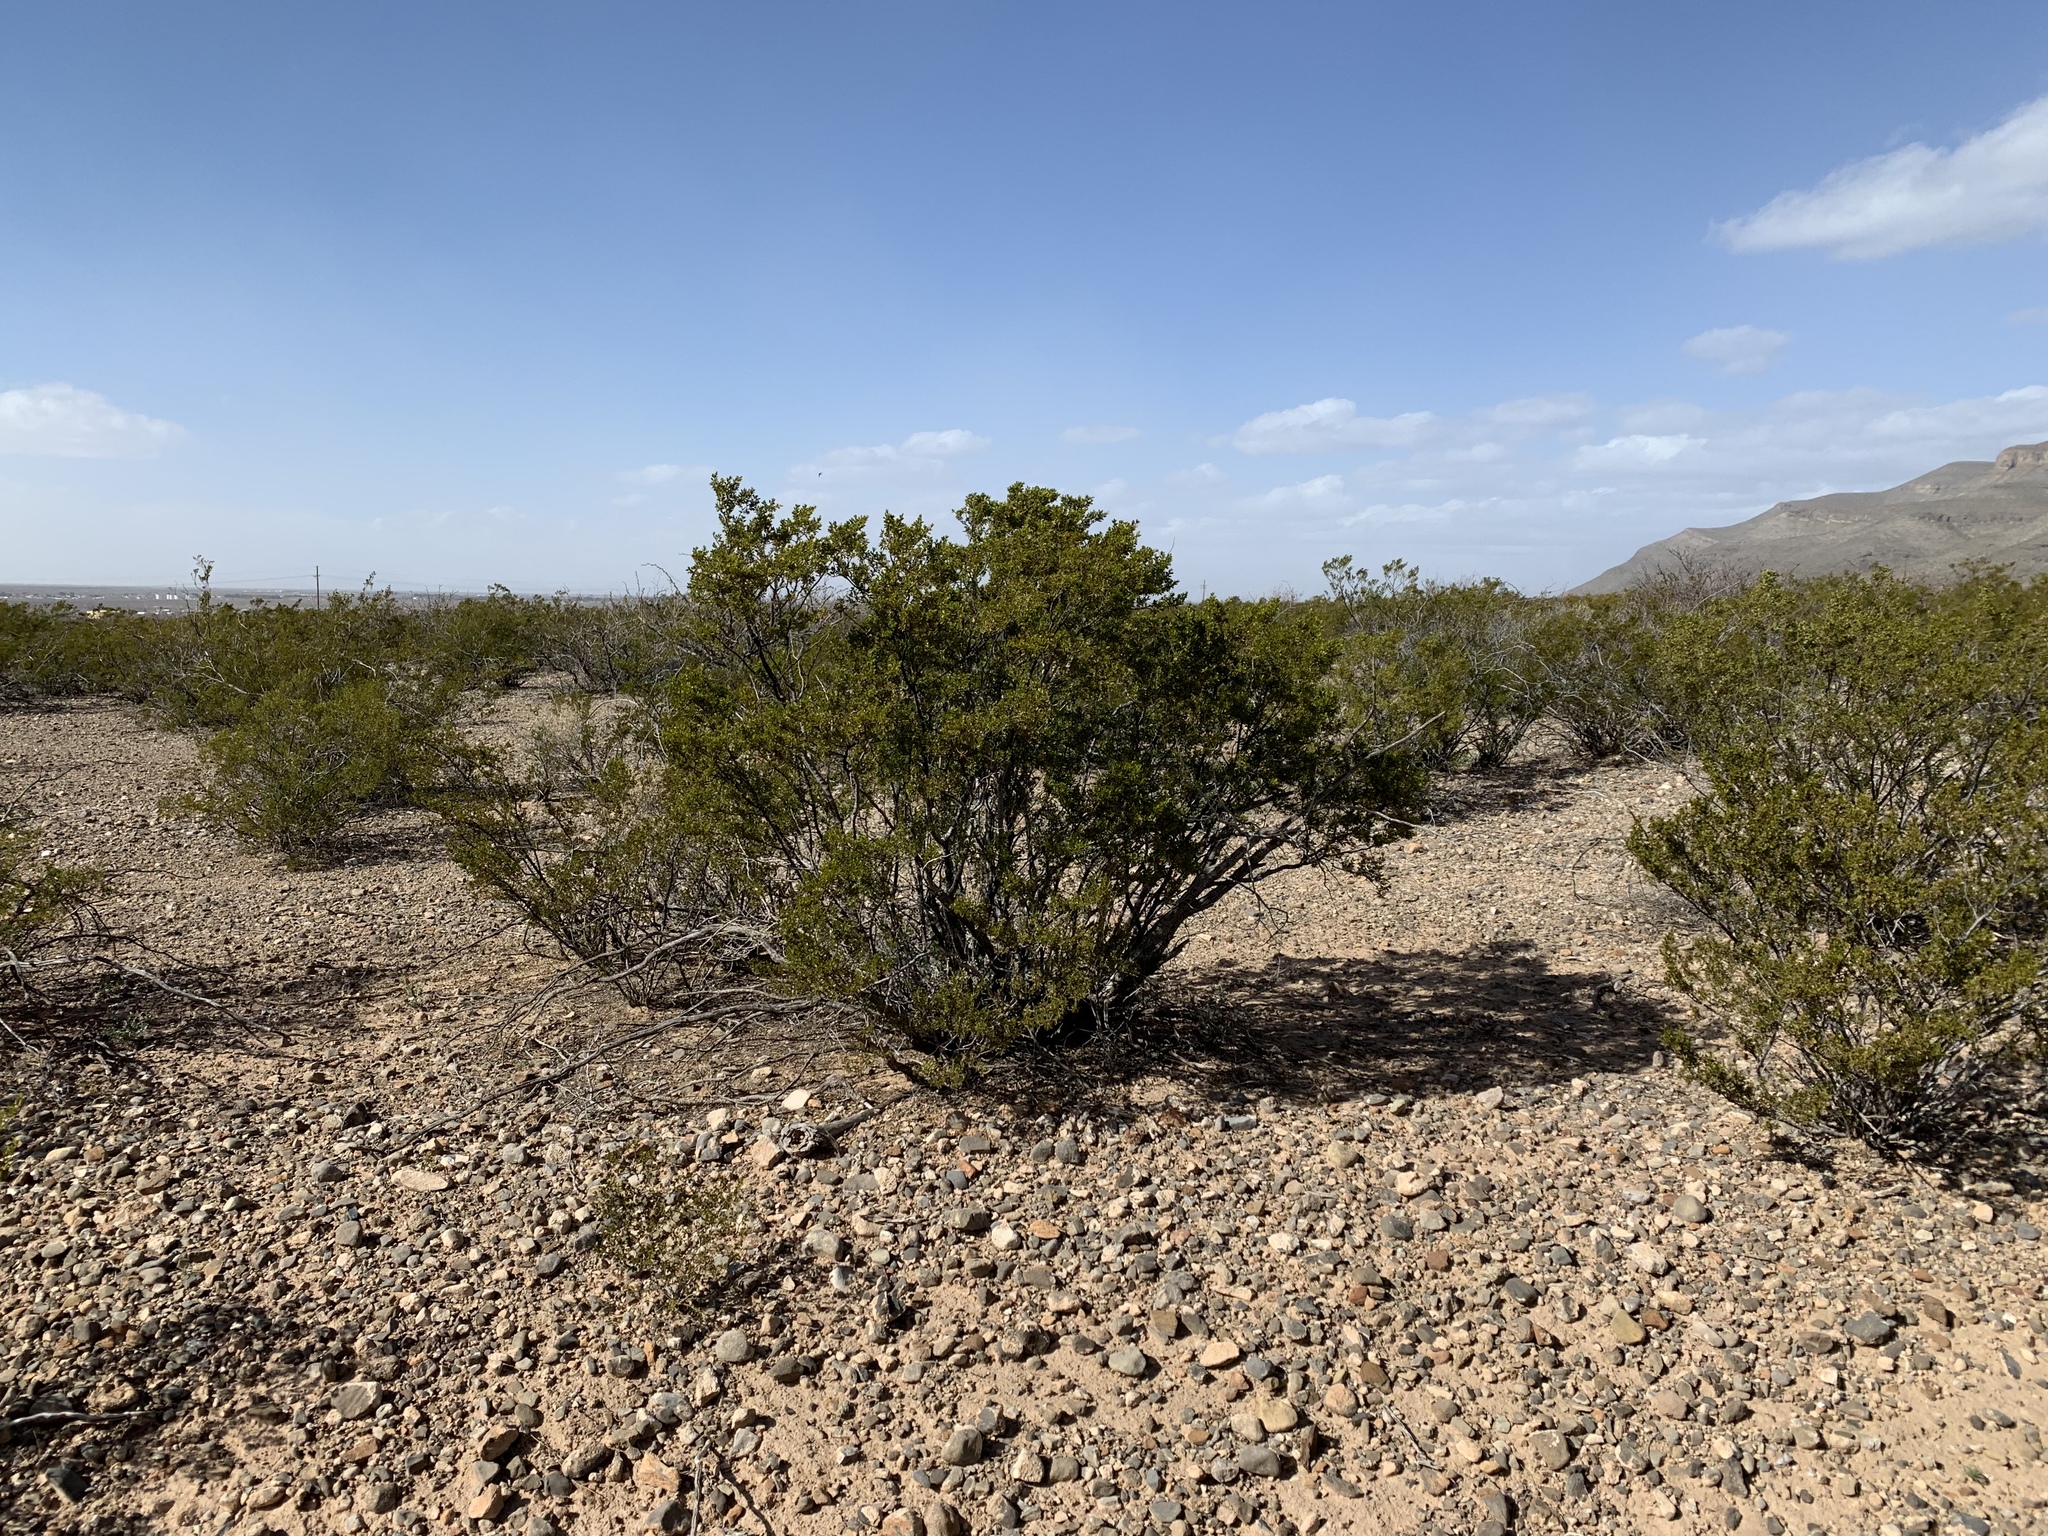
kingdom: Plantae
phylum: Tracheophyta
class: Magnoliopsida
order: Zygophyllales
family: Zygophyllaceae
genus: Larrea
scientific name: Larrea tridentata
